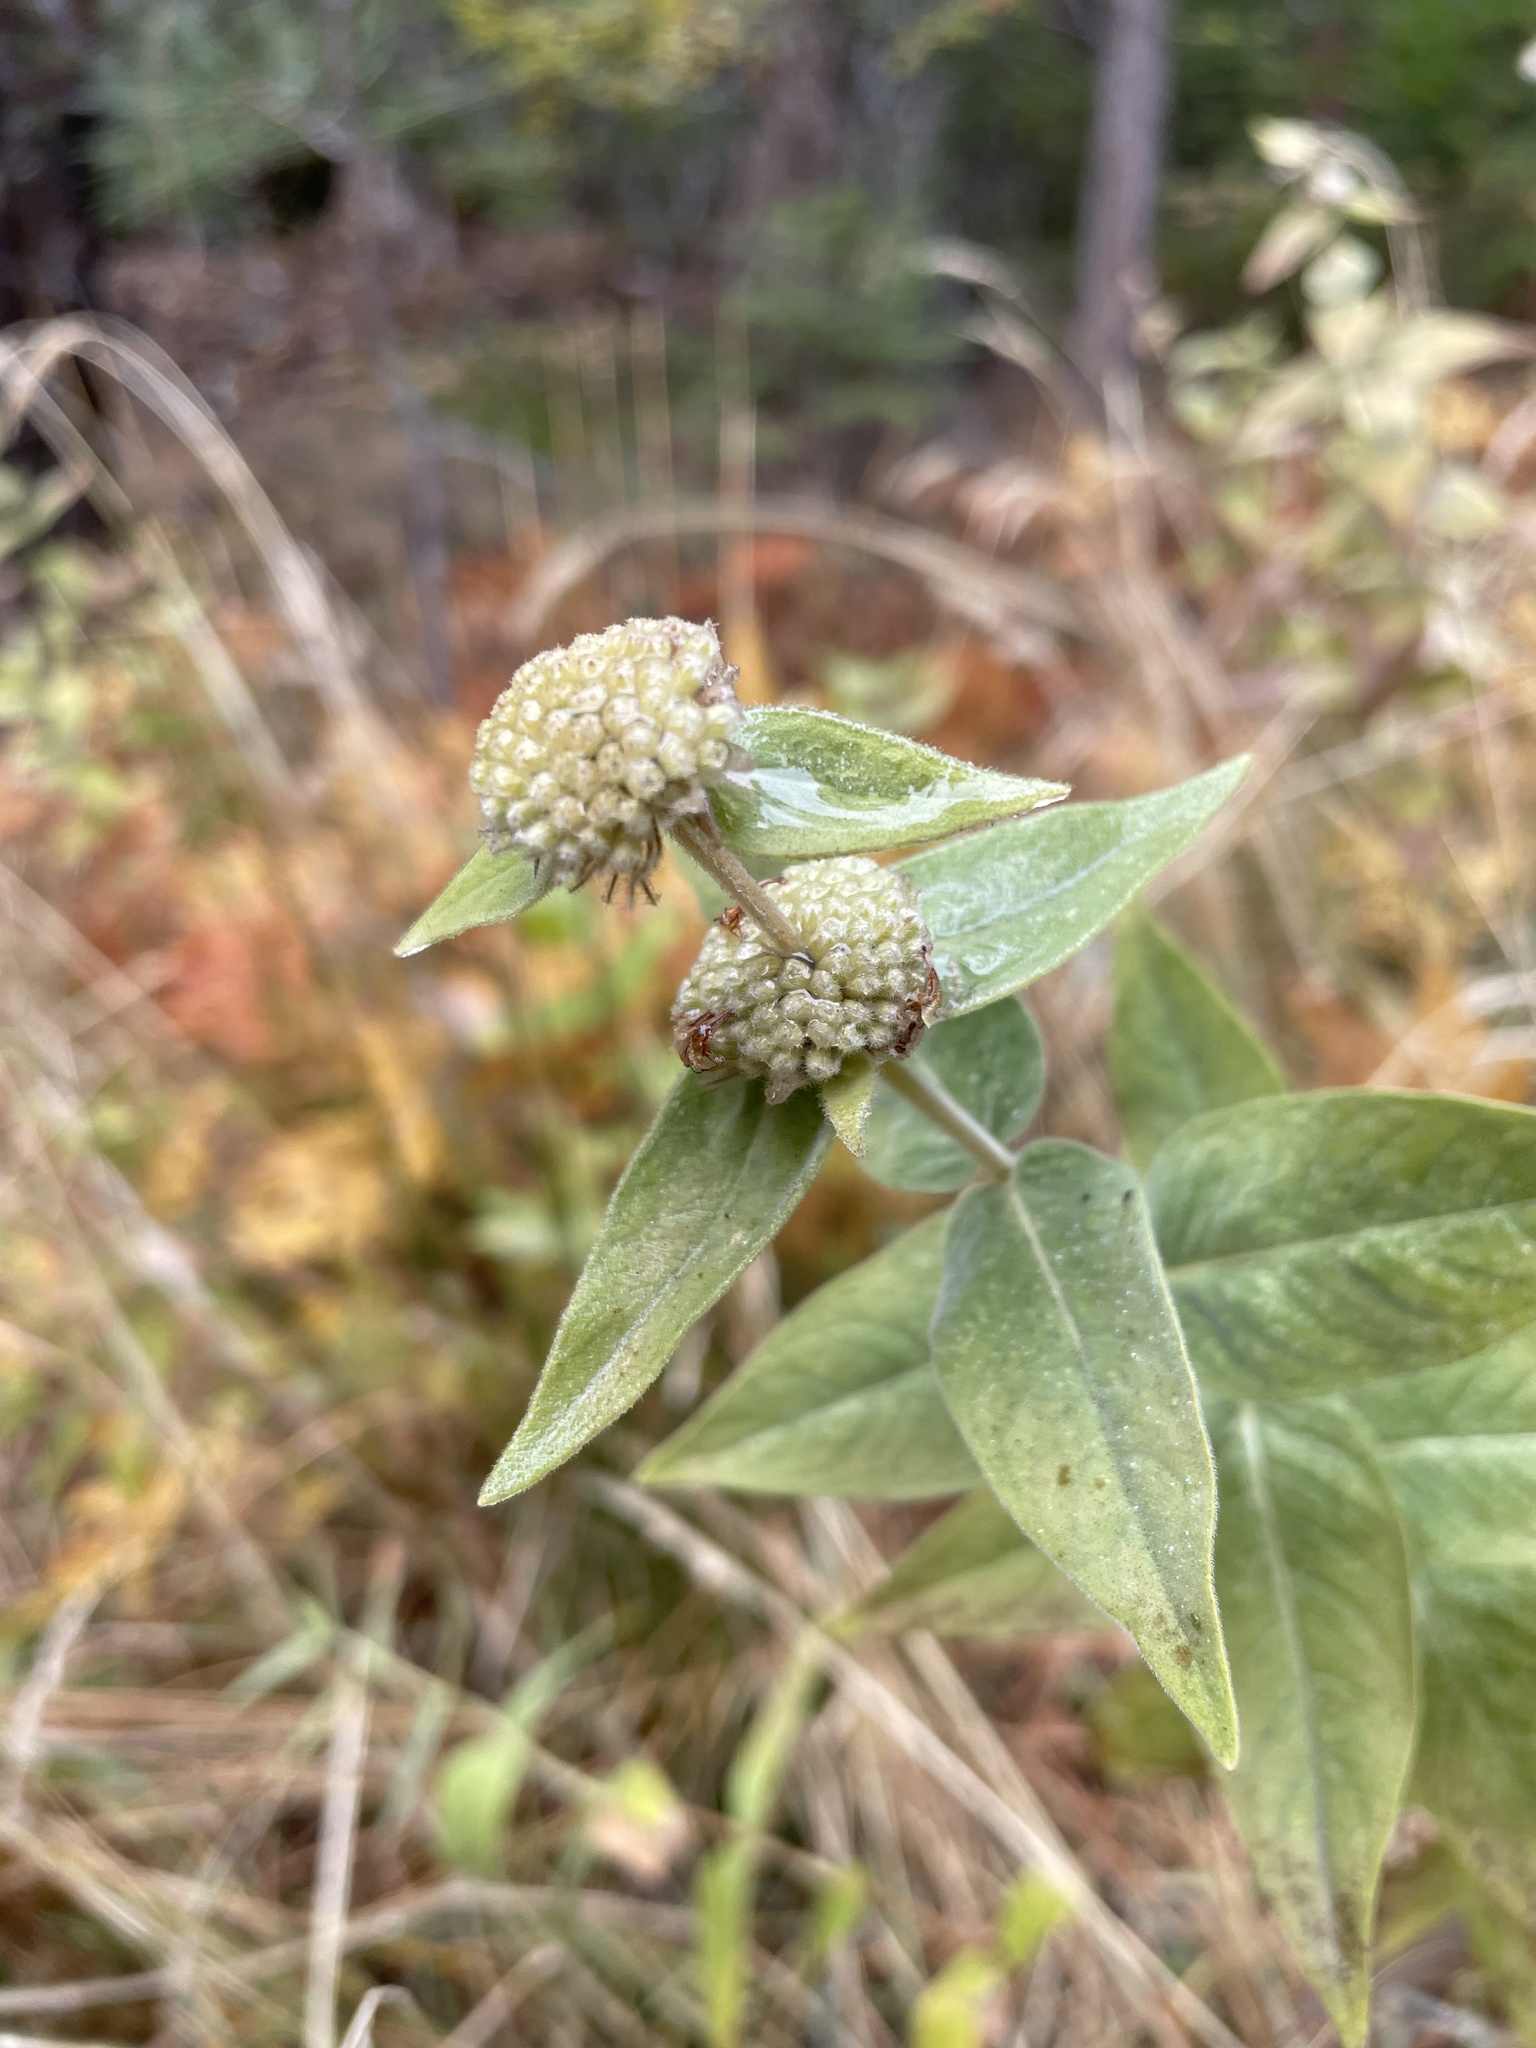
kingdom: Plantae
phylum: Tracheophyta
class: Magnoliopsida
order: Lamiales
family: Lamiaceae
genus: Pycnanthemum
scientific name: Pycnanthemum californicum
